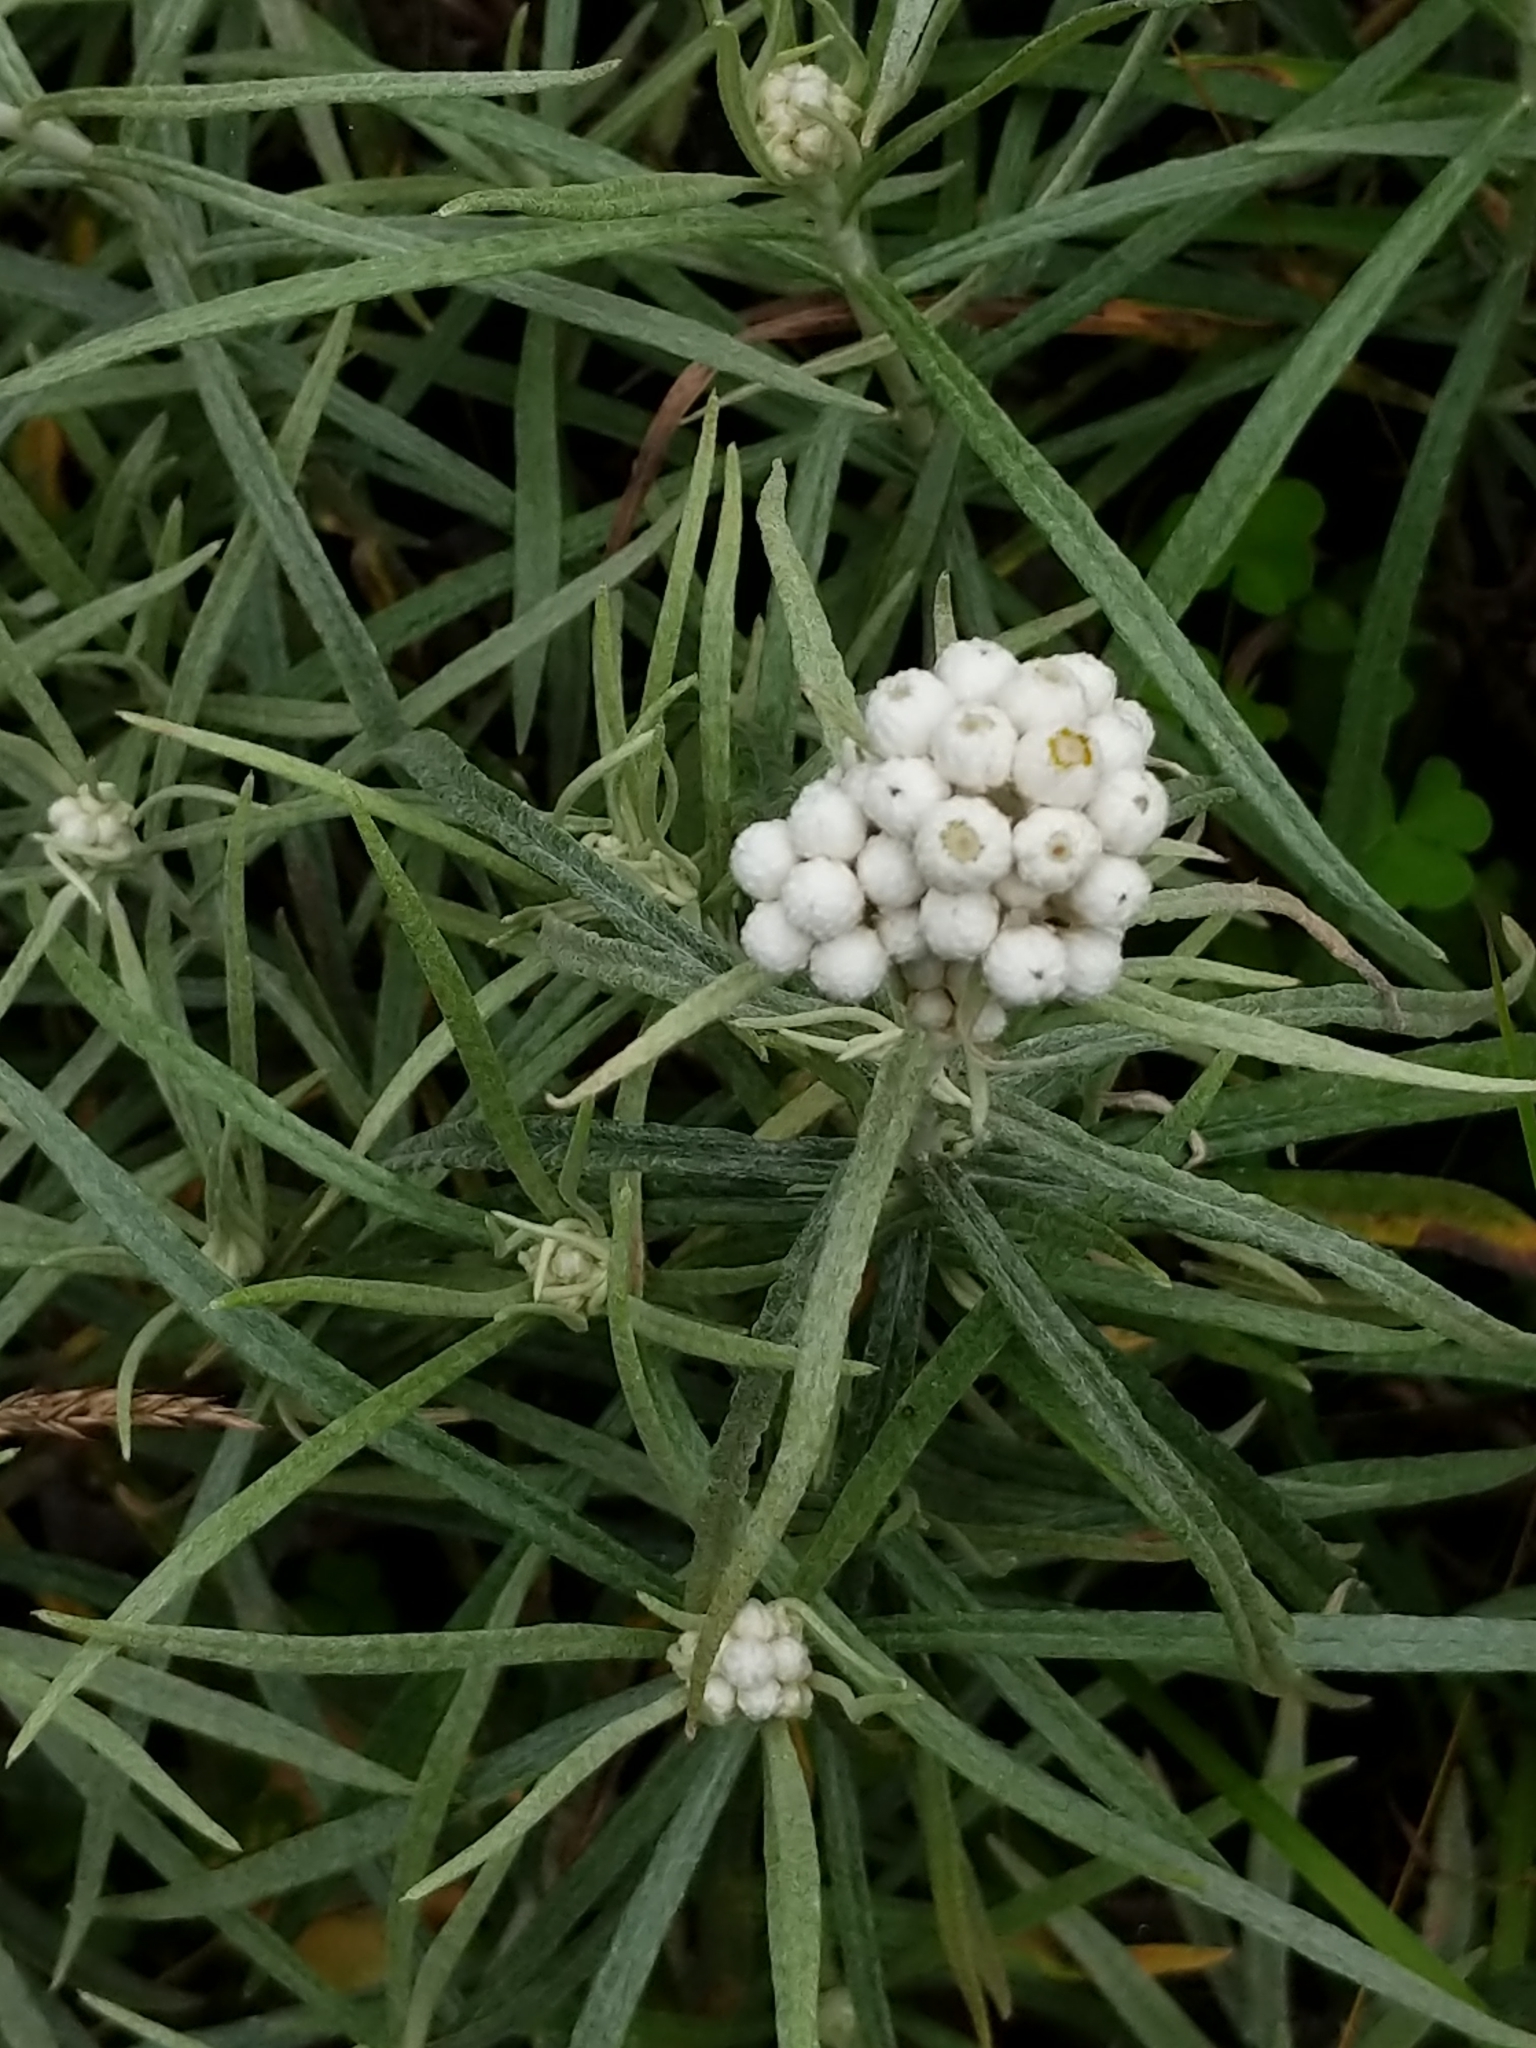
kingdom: Plantae
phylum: Tracheophyta
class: Magnoliopsida
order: Asterales
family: Asteraceae
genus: Anaphalis
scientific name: Anaphalis margaritacea
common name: Pearly everlasting
